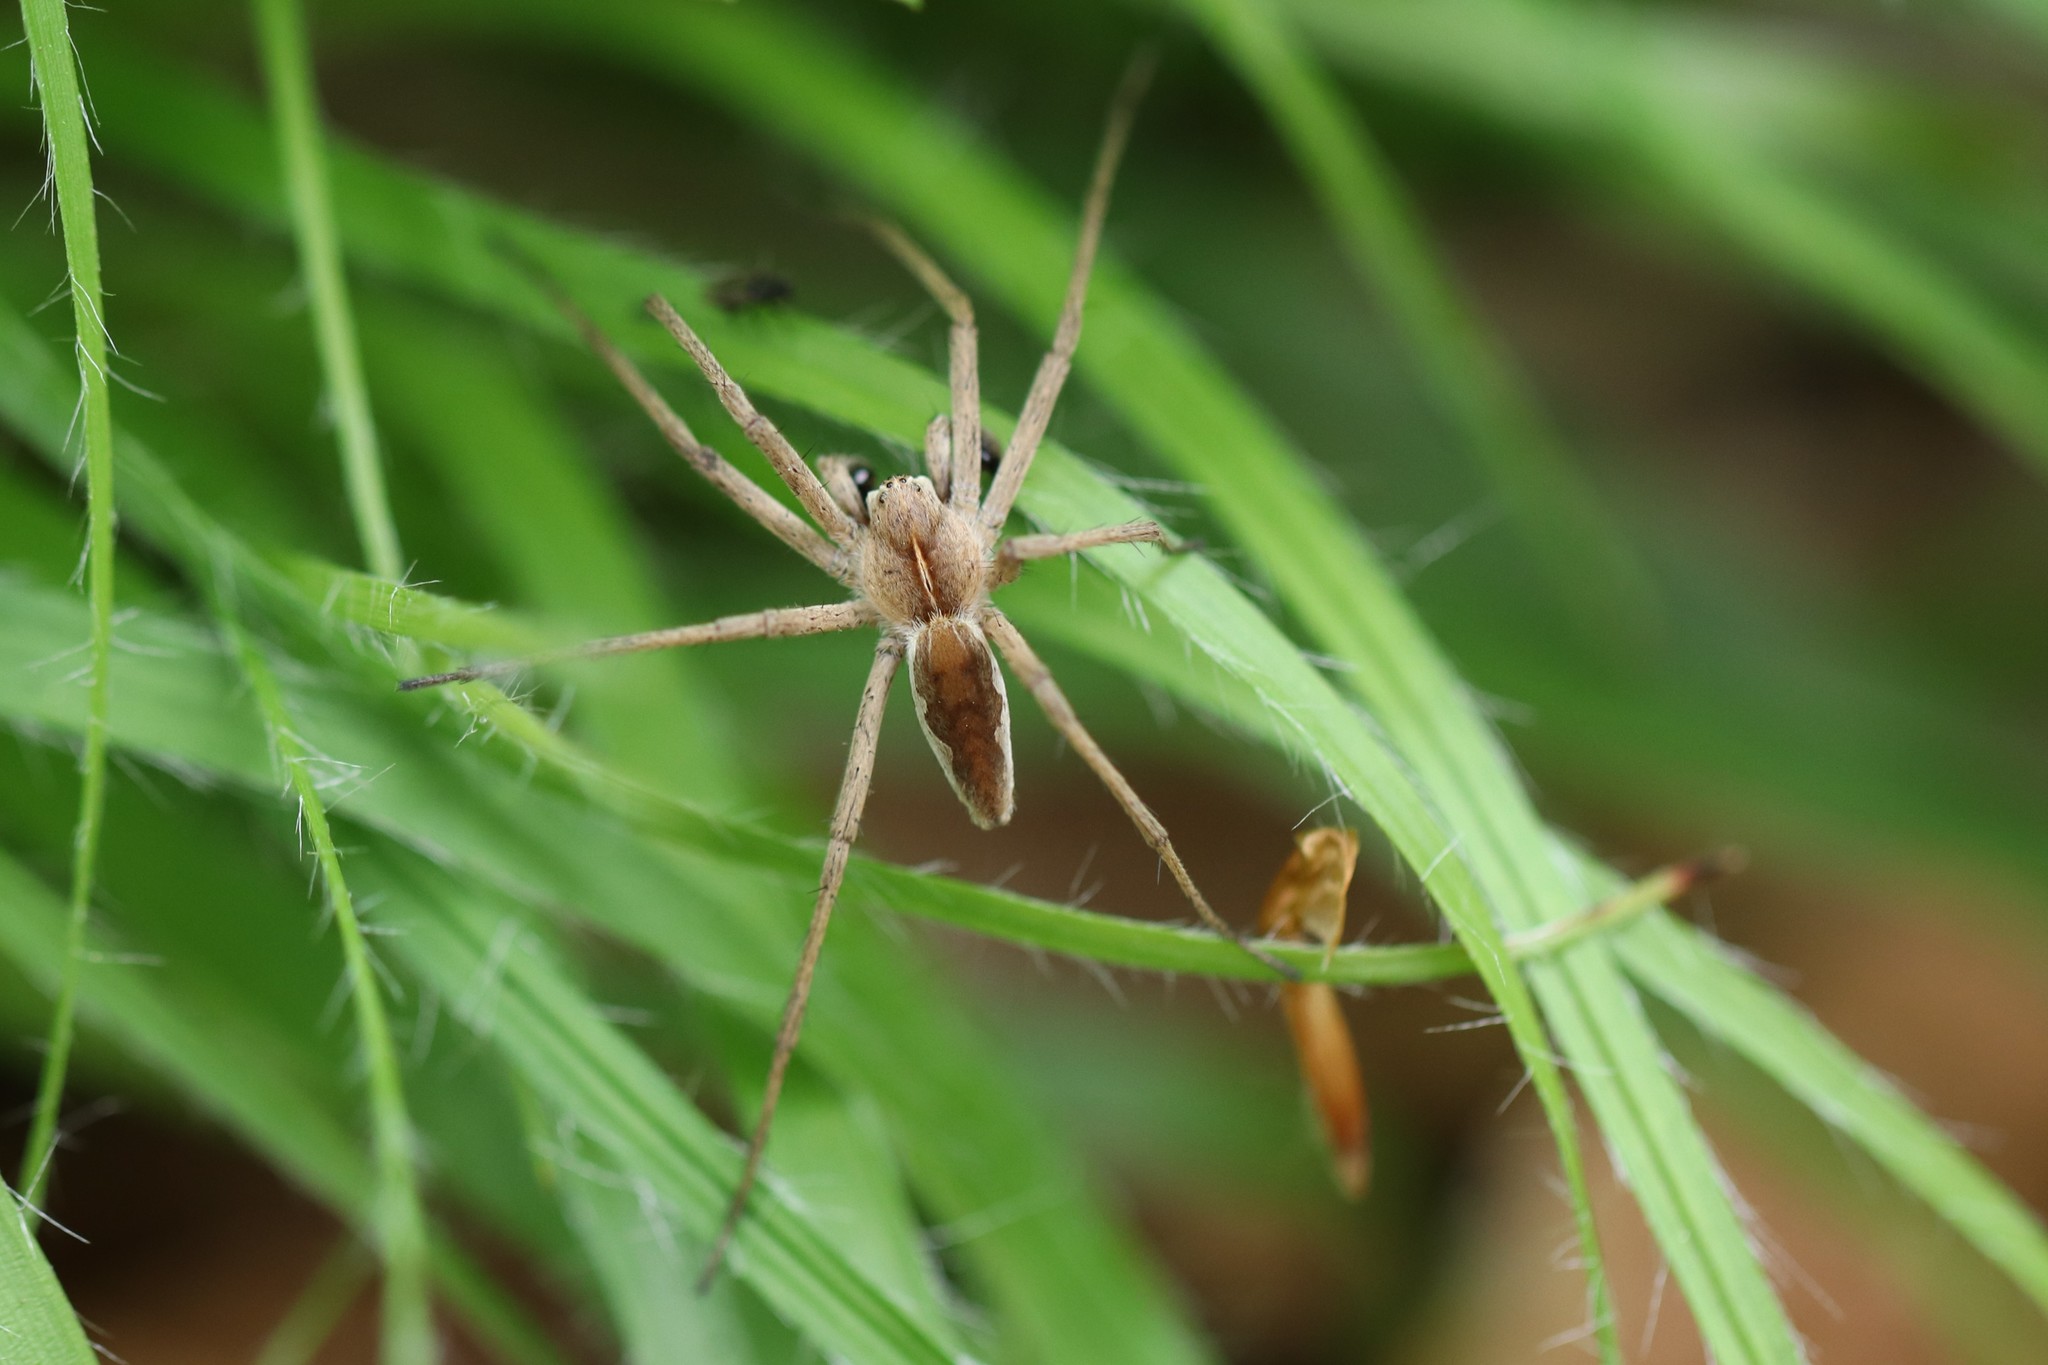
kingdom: Animalia
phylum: Arthropoda
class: Arachnida
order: Araneae
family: Pisauridae
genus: Pisaura
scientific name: Pisaura mirabilis
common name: Tent spider
